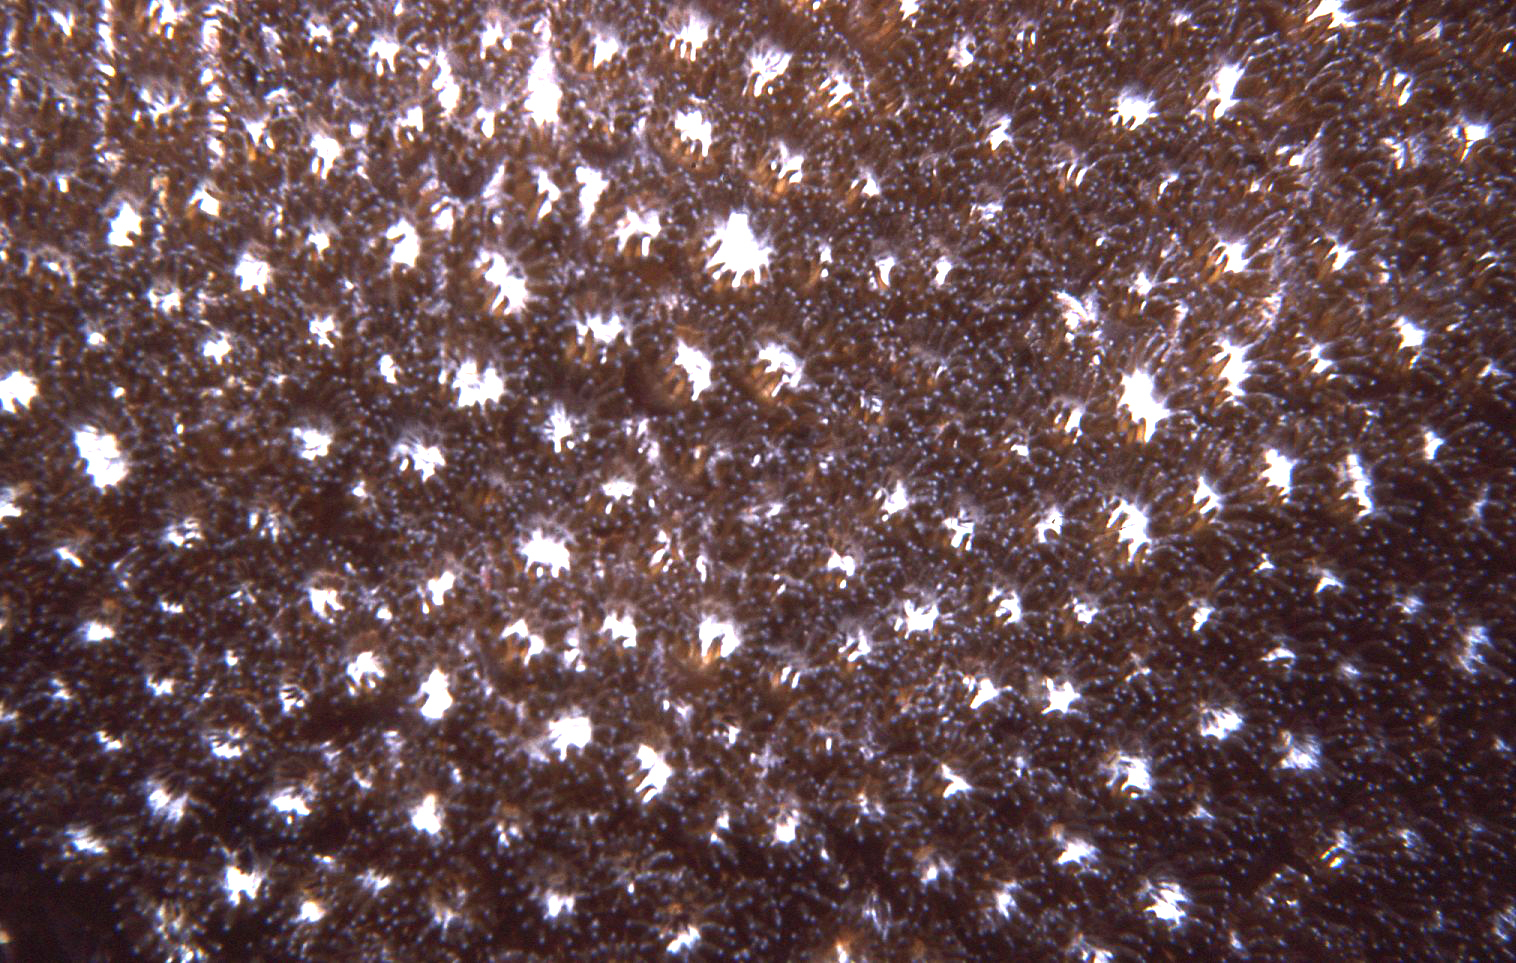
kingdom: Animalia
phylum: Cnidaria
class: Anthozoa
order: Scleractinia
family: Plesiastreidae
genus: Plesiastrea
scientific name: Plesiastrea versipora
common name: Small knob coral
